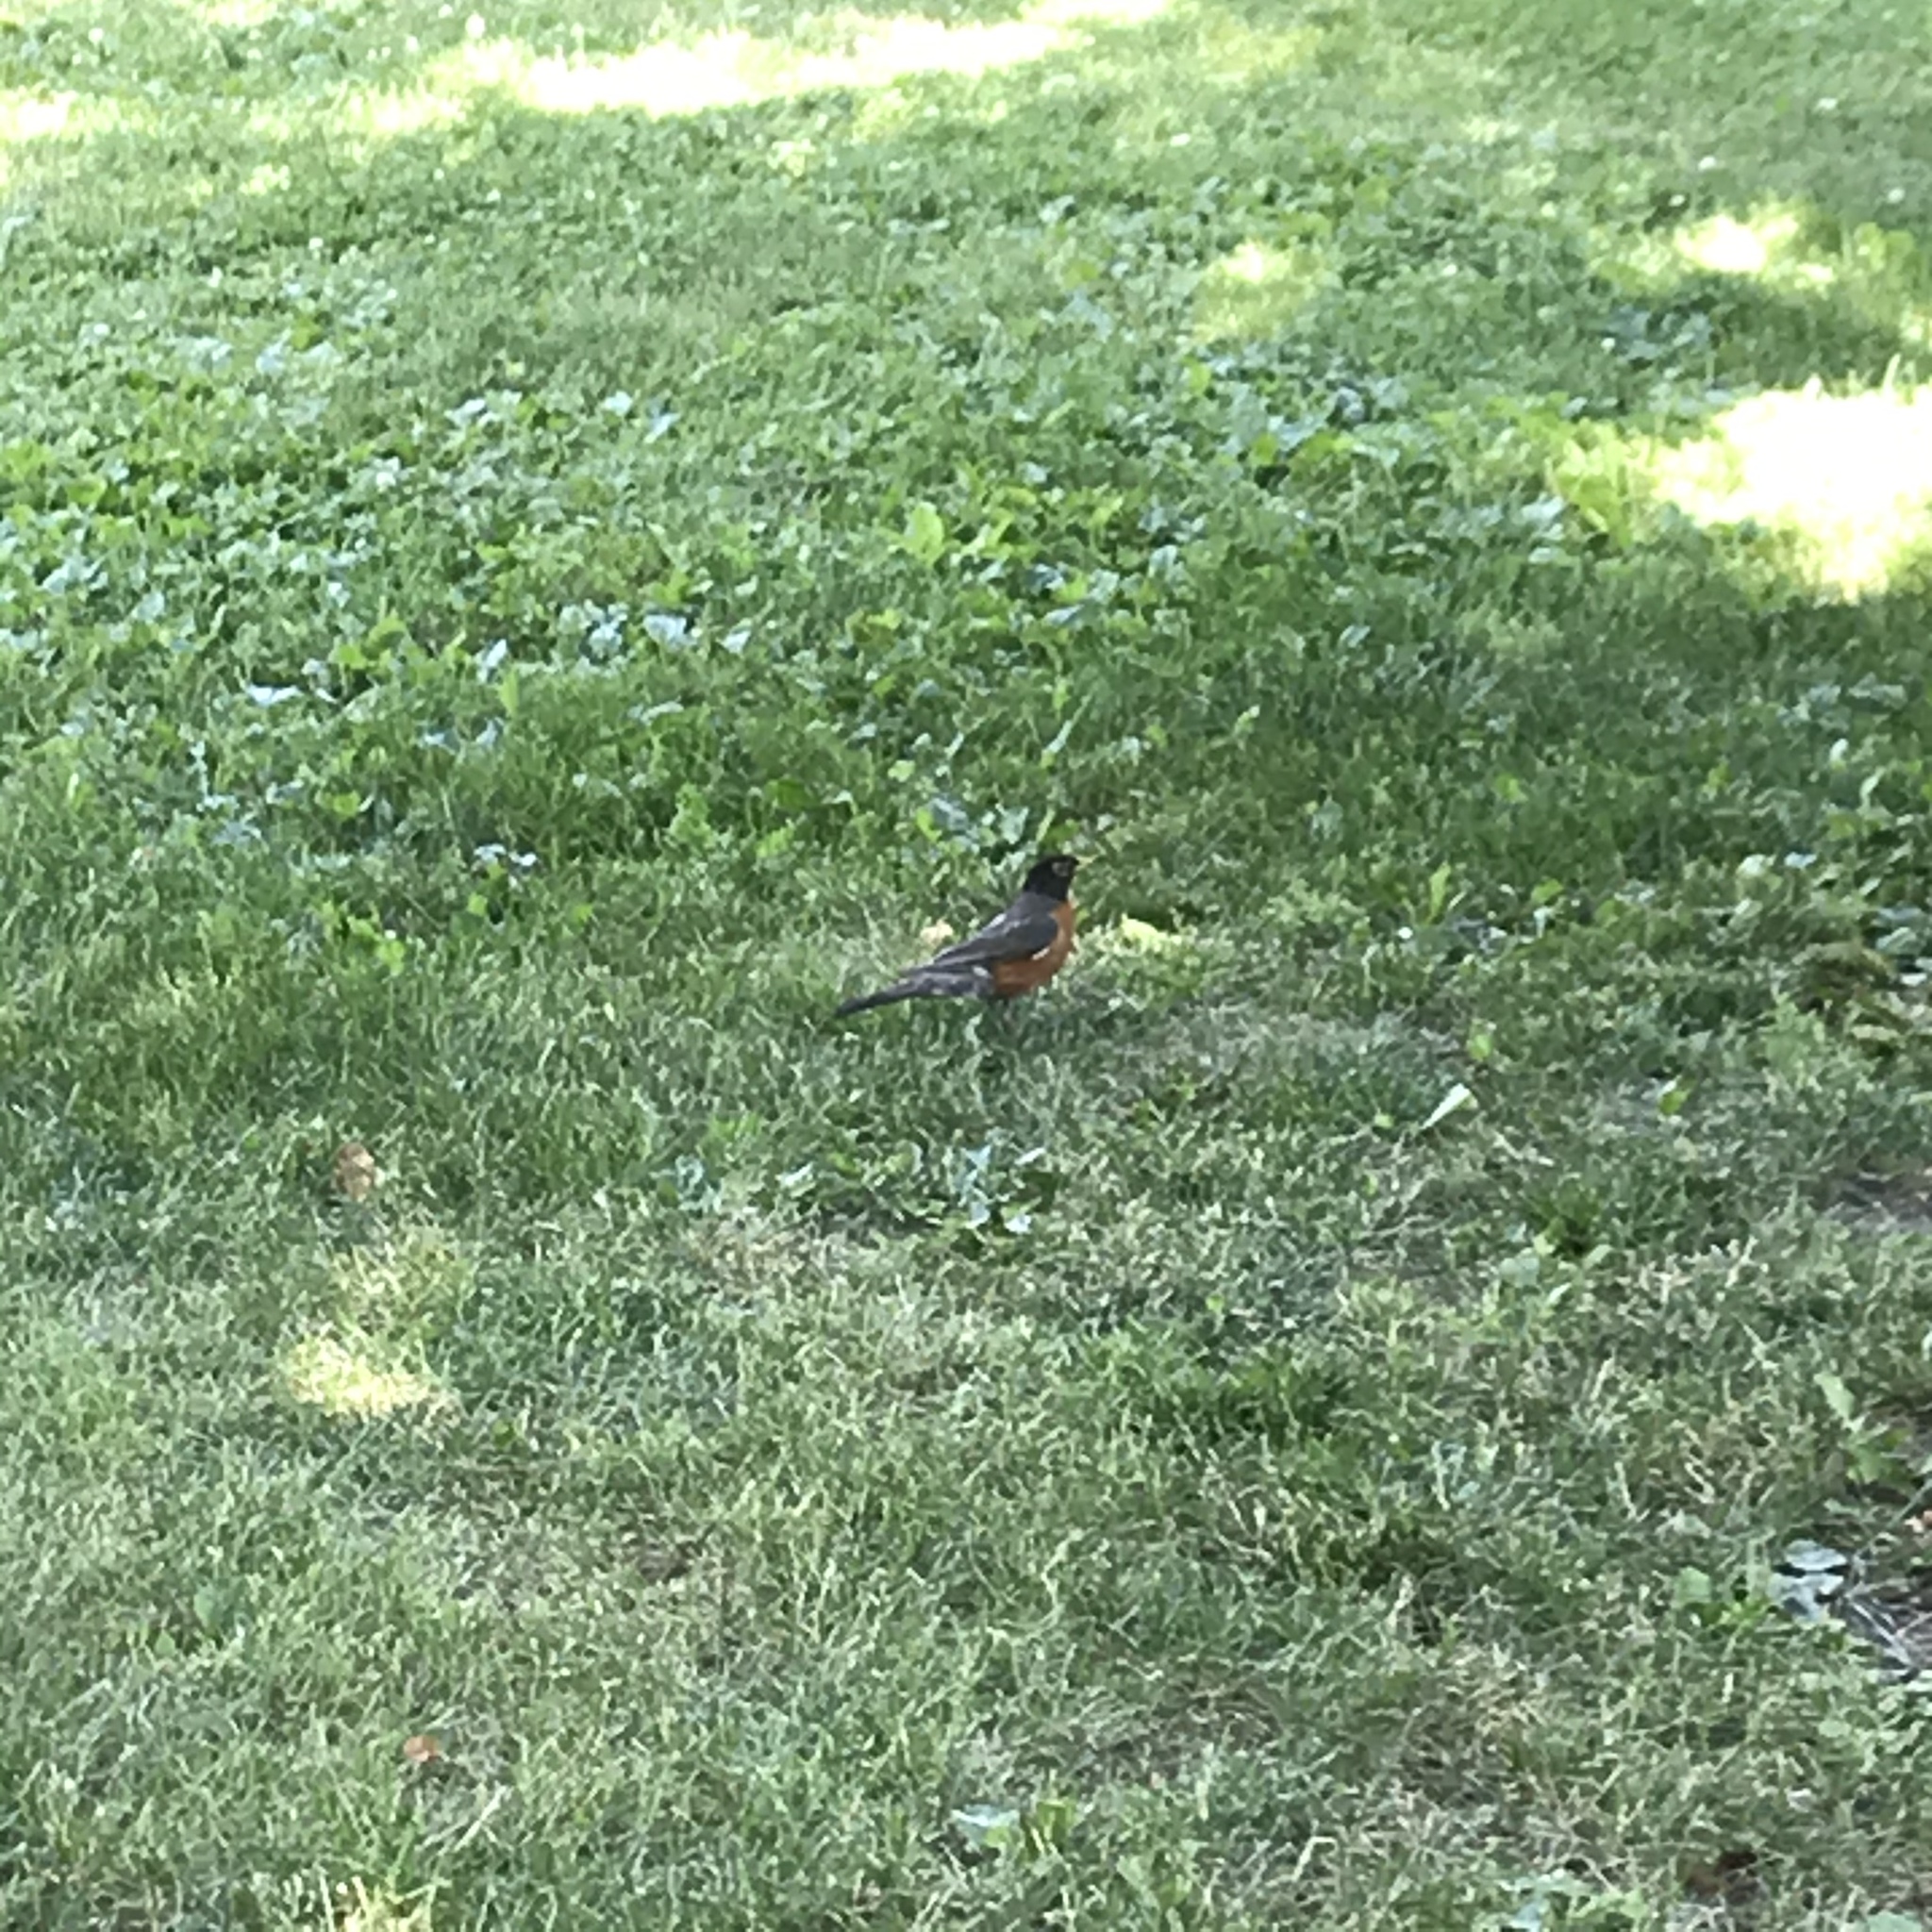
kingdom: Animalia
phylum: Chordata
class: Aves
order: Passeriformes
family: Turdidae
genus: Turdus
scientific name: Turdus migratorius
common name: American robin
